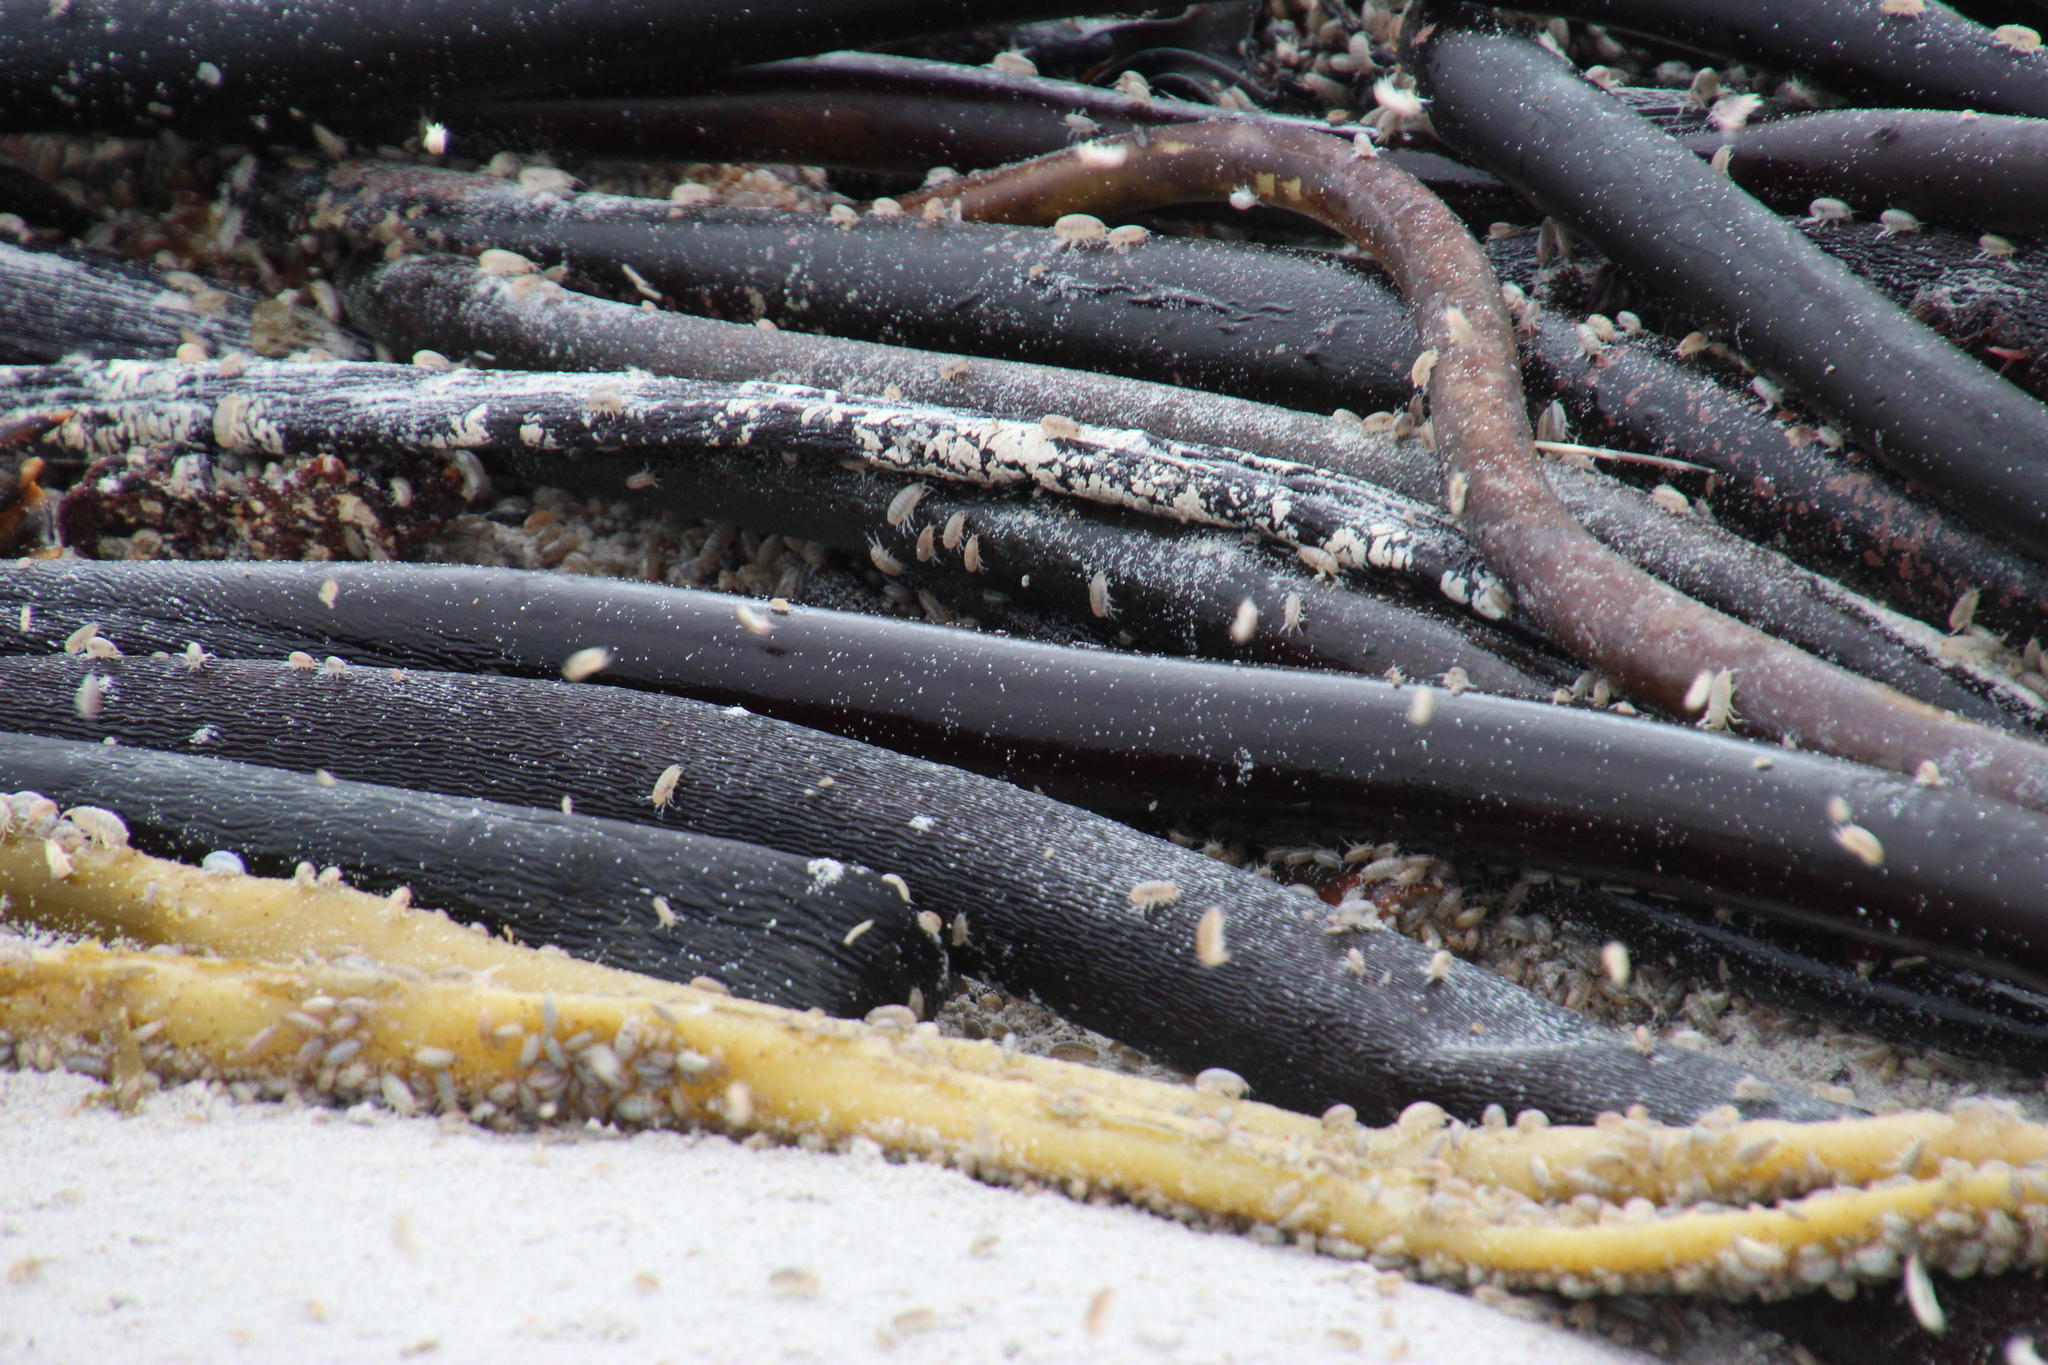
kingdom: Animalia
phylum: Arthropoda
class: Malacostraca
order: Amphipoda
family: Talitridae
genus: Capeorchestia
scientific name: Capeorchestia capensis
